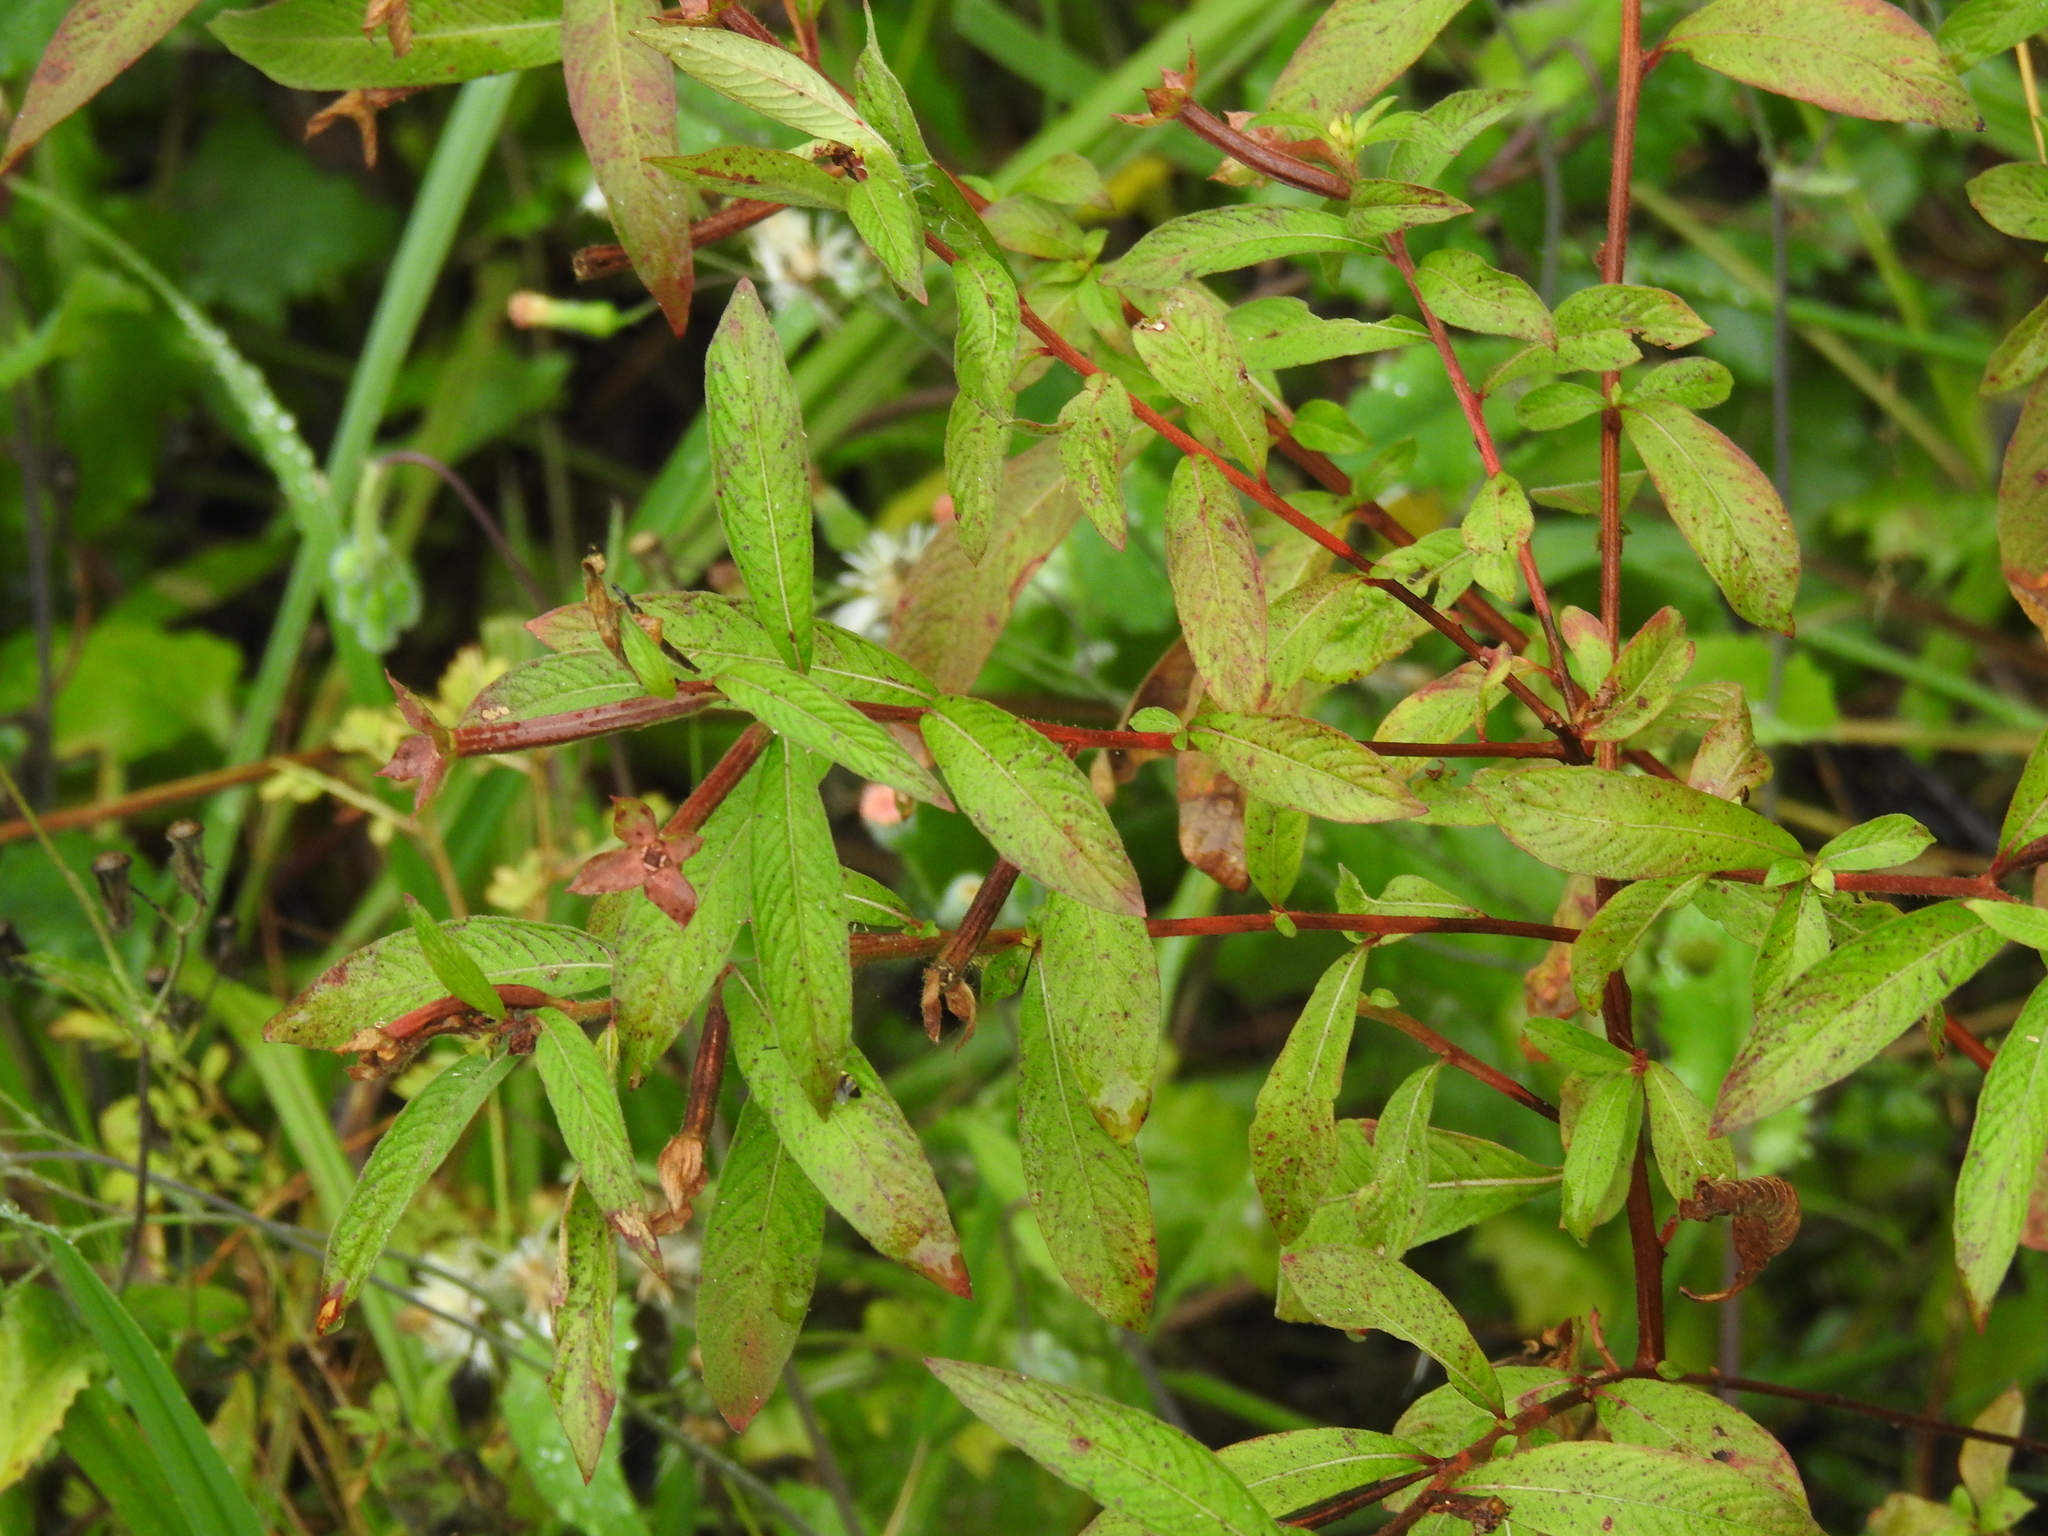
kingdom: Plantae
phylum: Tracheophyta
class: Magnoliopsida
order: Myrtales
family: Onagraceae
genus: Ludwigia
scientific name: Ludwigia octovalvis
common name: Water-primrose
